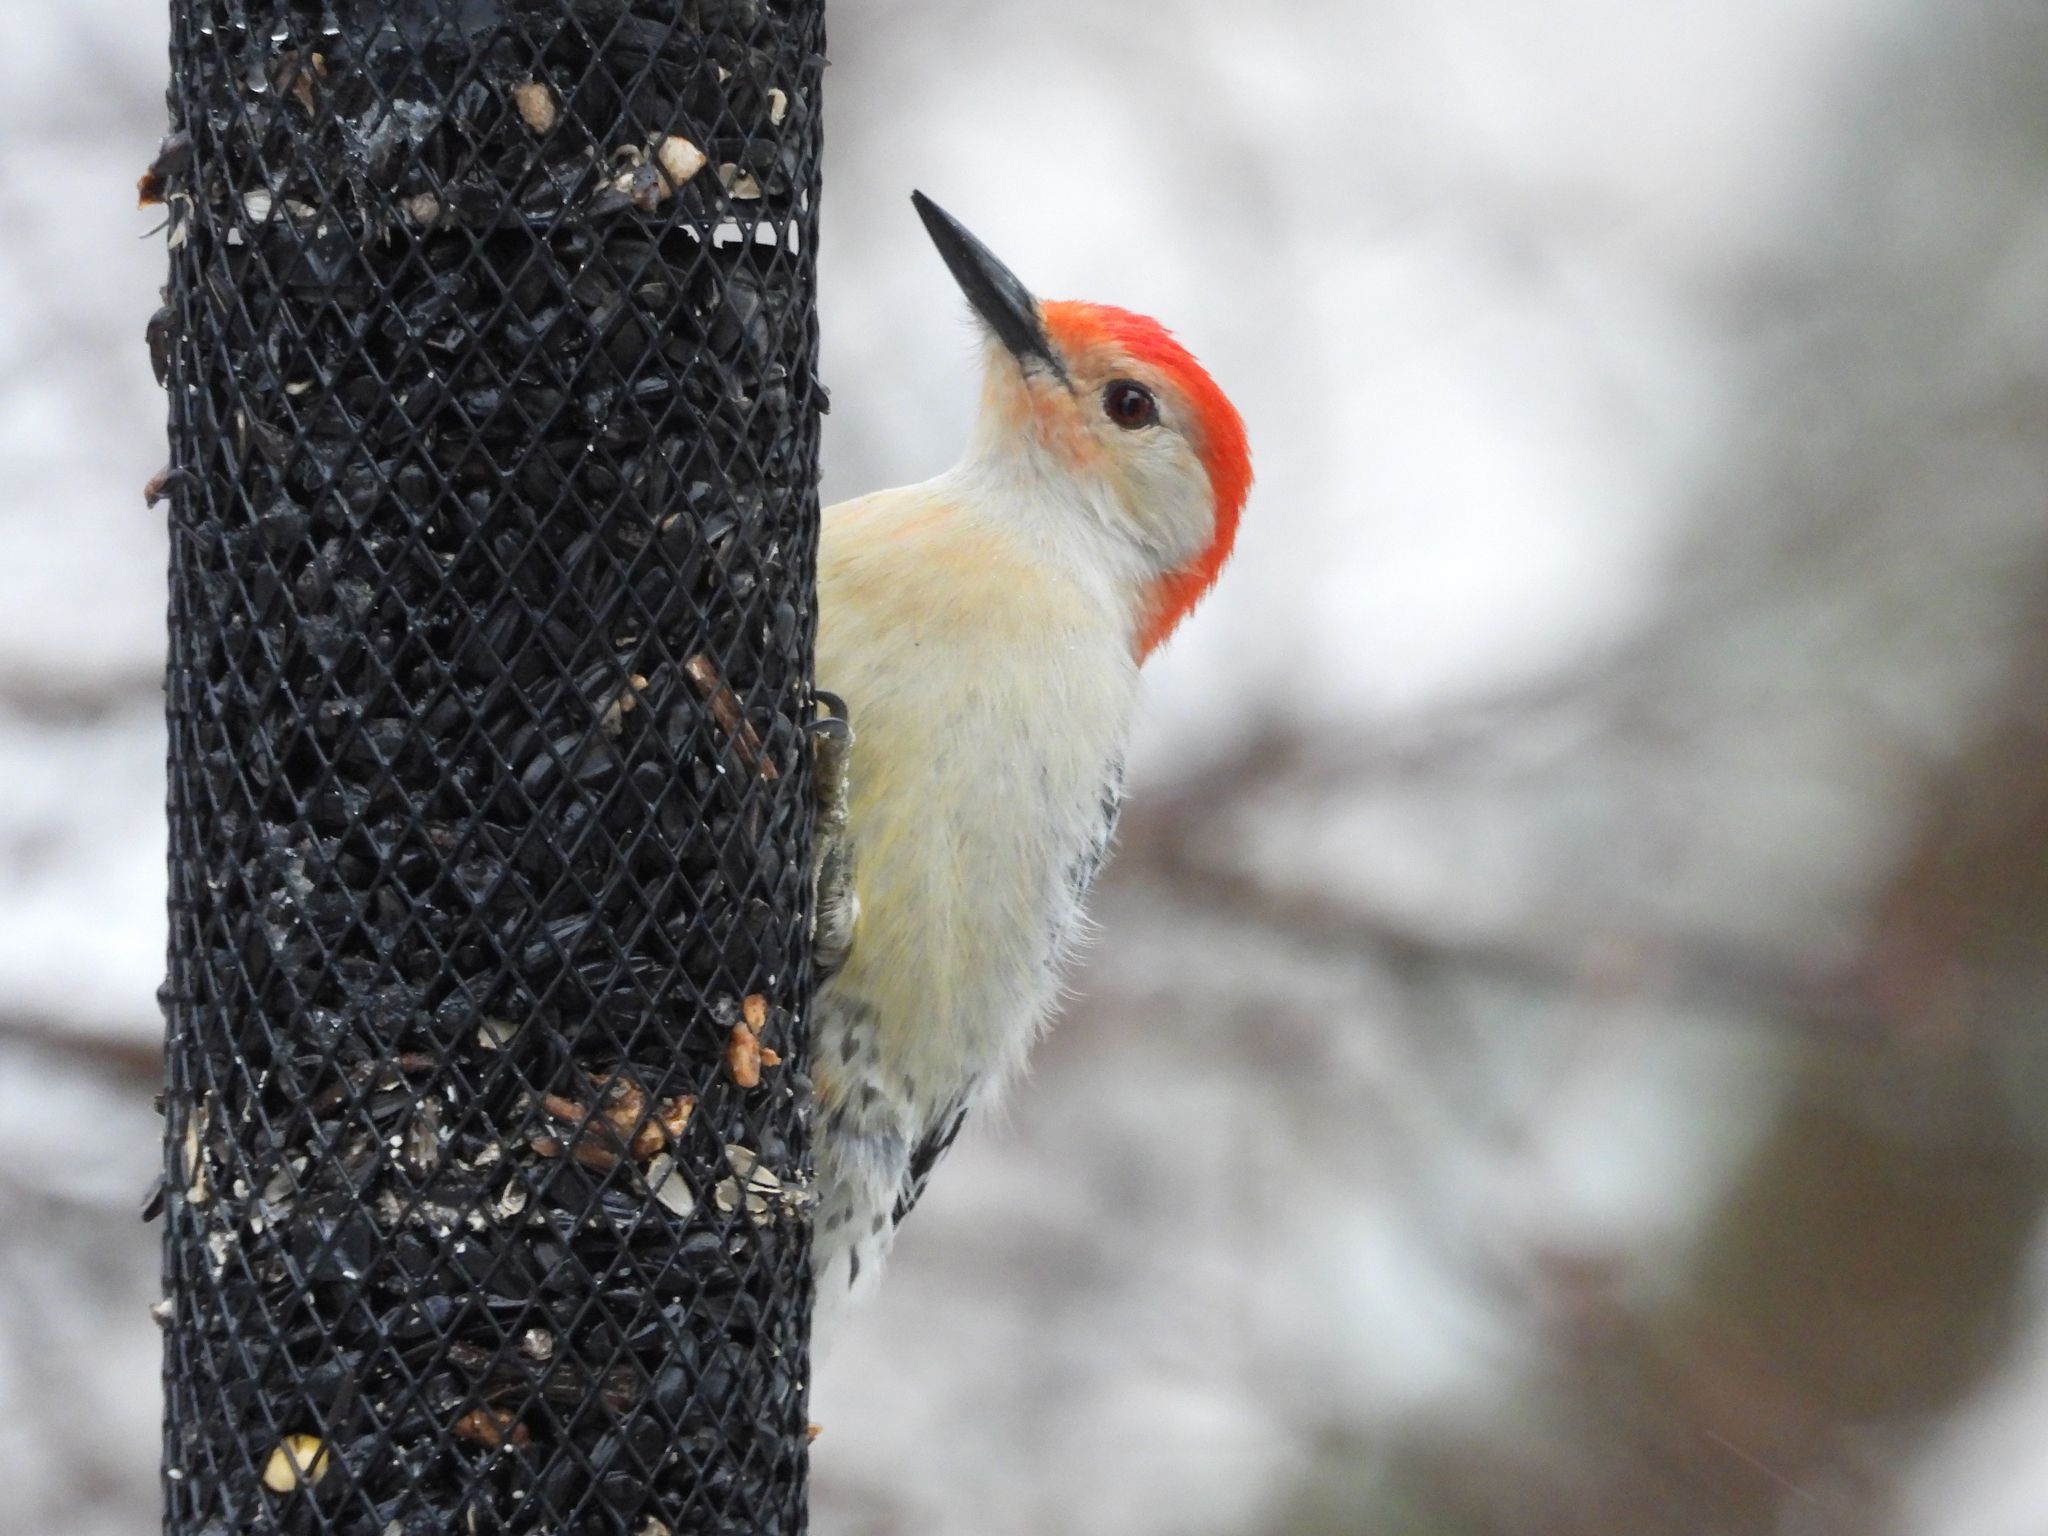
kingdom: Animalia
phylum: Chordata
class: Aves
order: Piciformes
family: Picidae
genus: Melanerpes
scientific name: Melanerpes carolinus
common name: Red-bellied woodpecker
